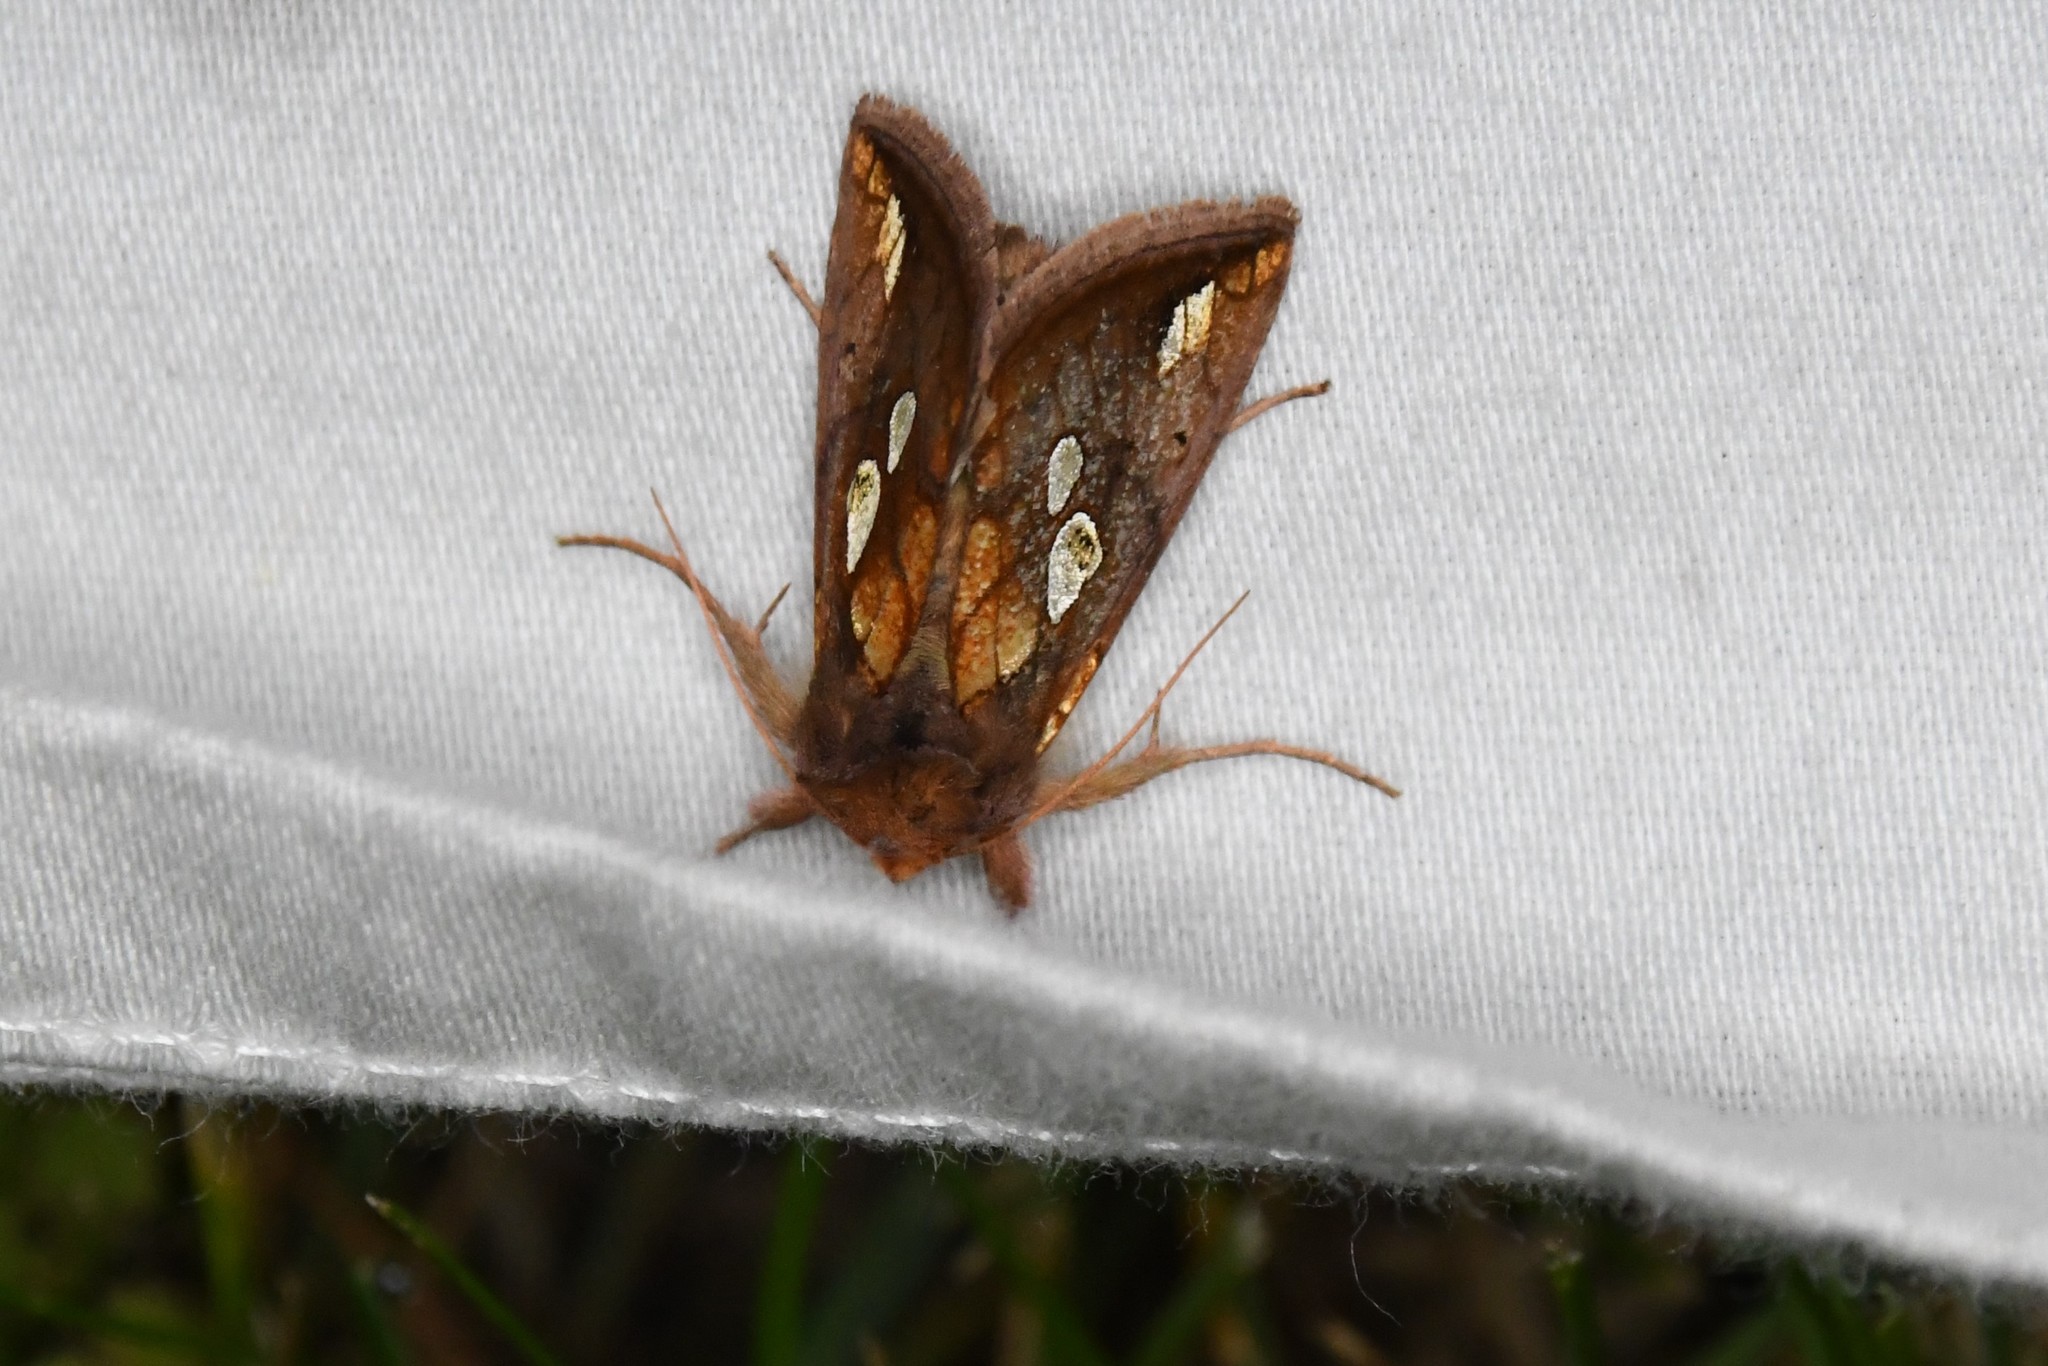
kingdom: Animalia
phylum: Arthropoda
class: Insecta
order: Lepidoptera
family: Noctuidae
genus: Plusia
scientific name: Plusia putnami
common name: Lempke's gold spot
